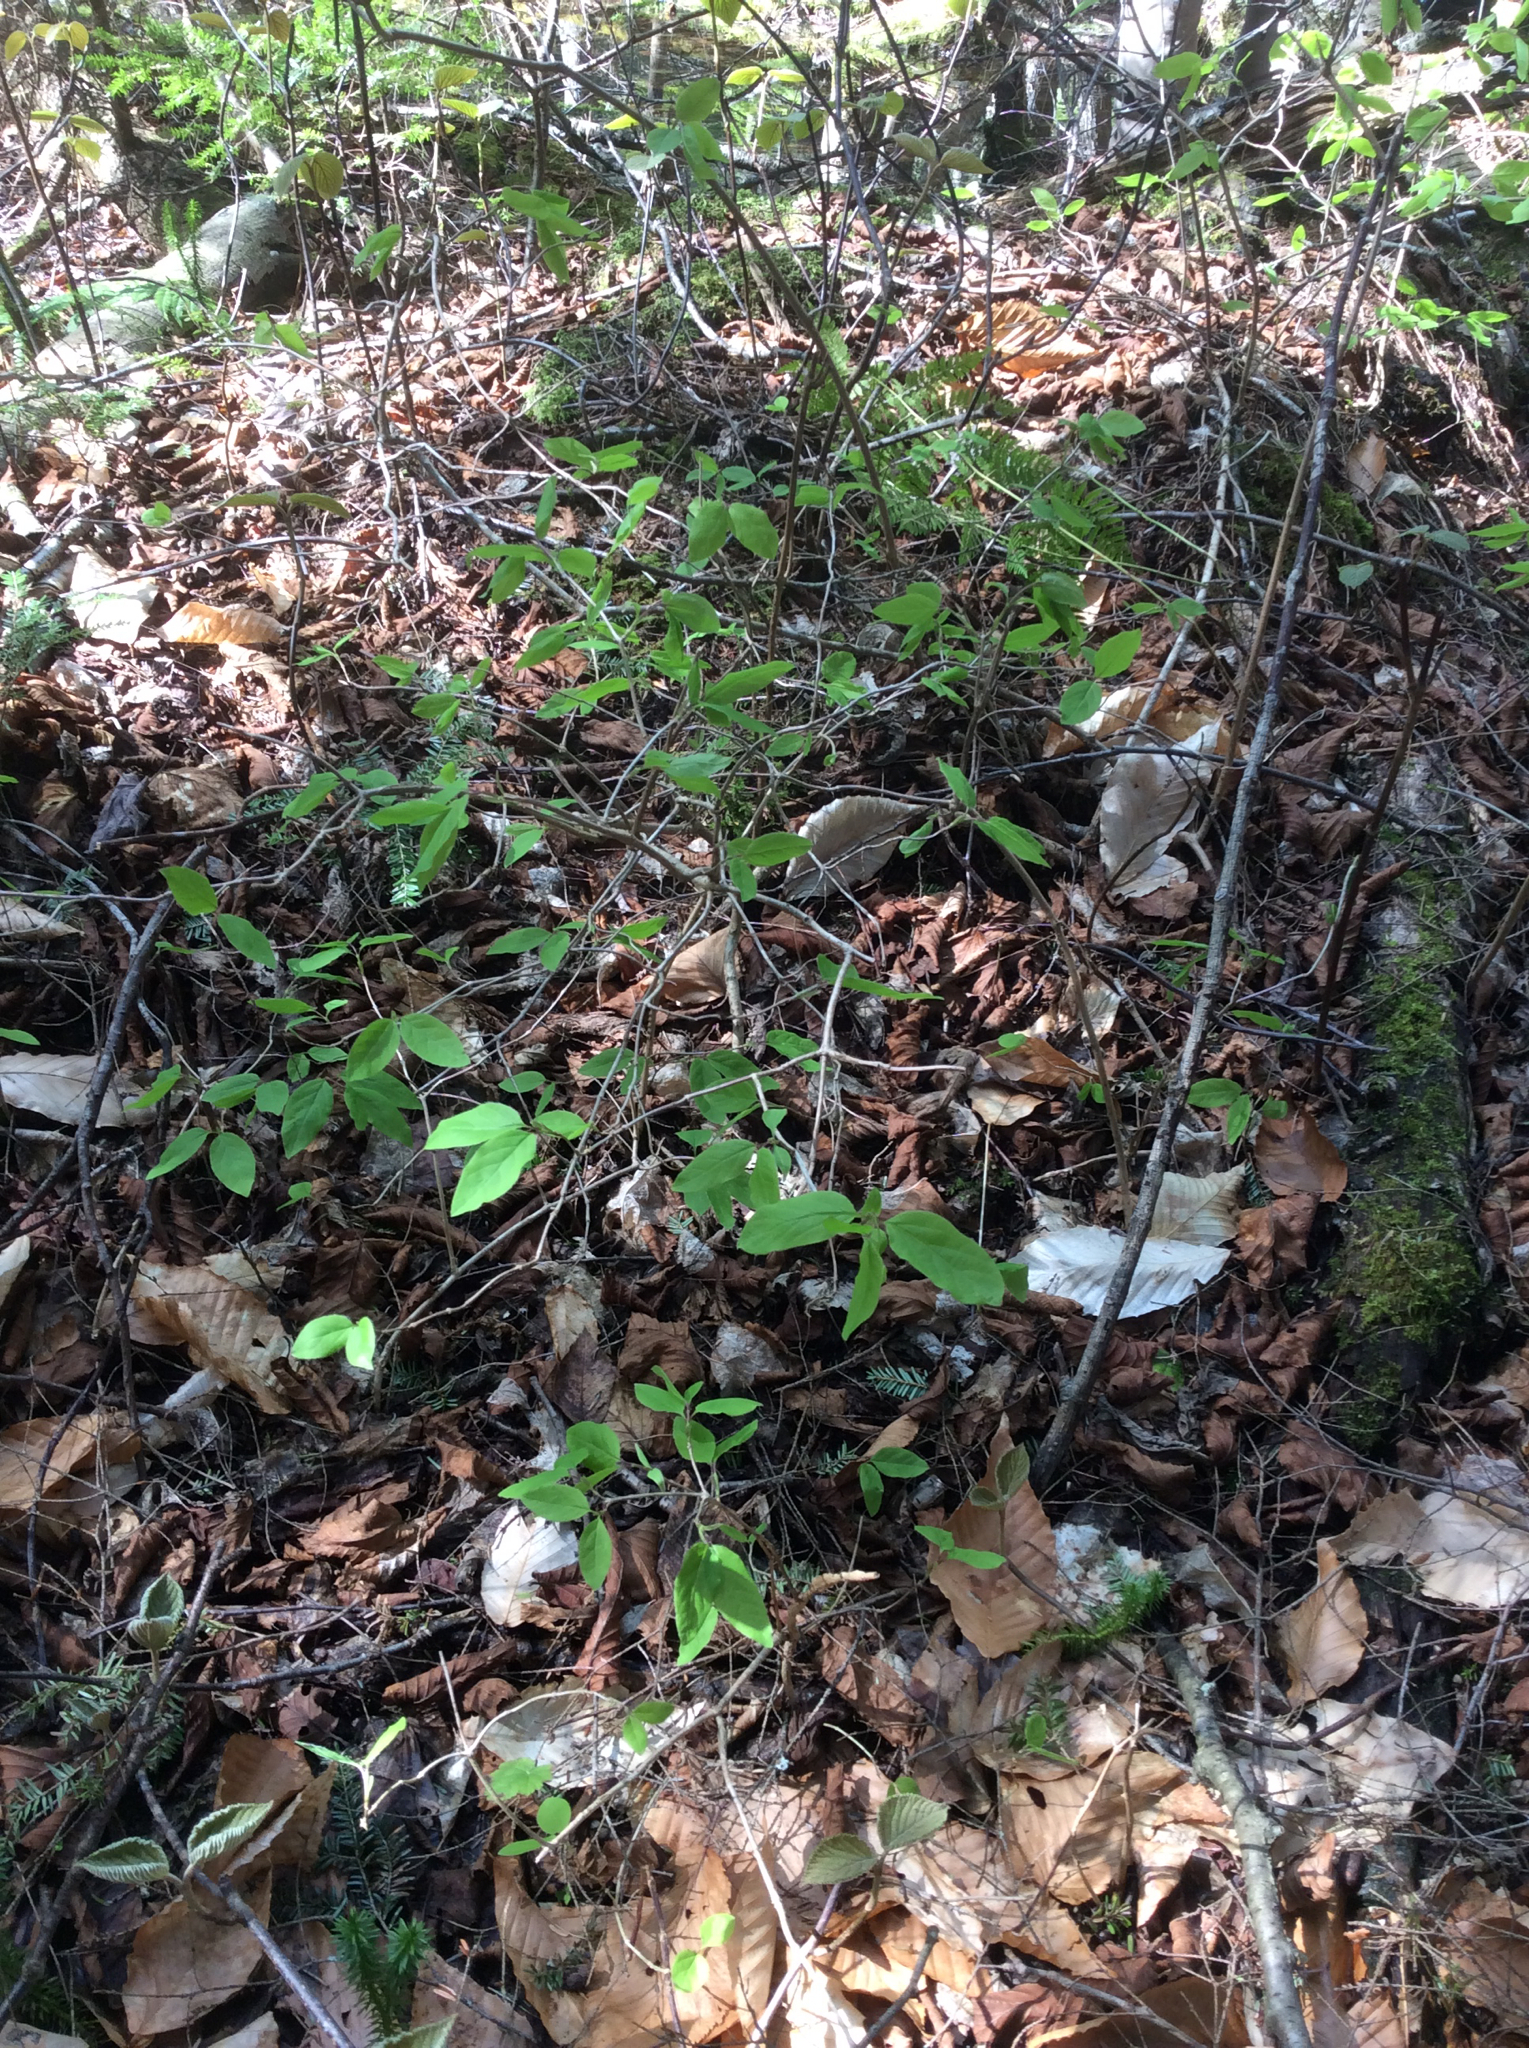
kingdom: Plantae
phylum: Tracheophyta
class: Magnoliopsida
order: Dipsacales
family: Caprifoliaceae
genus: Lonicera
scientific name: Lonicera canadensis
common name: American fly-honeysuckle
